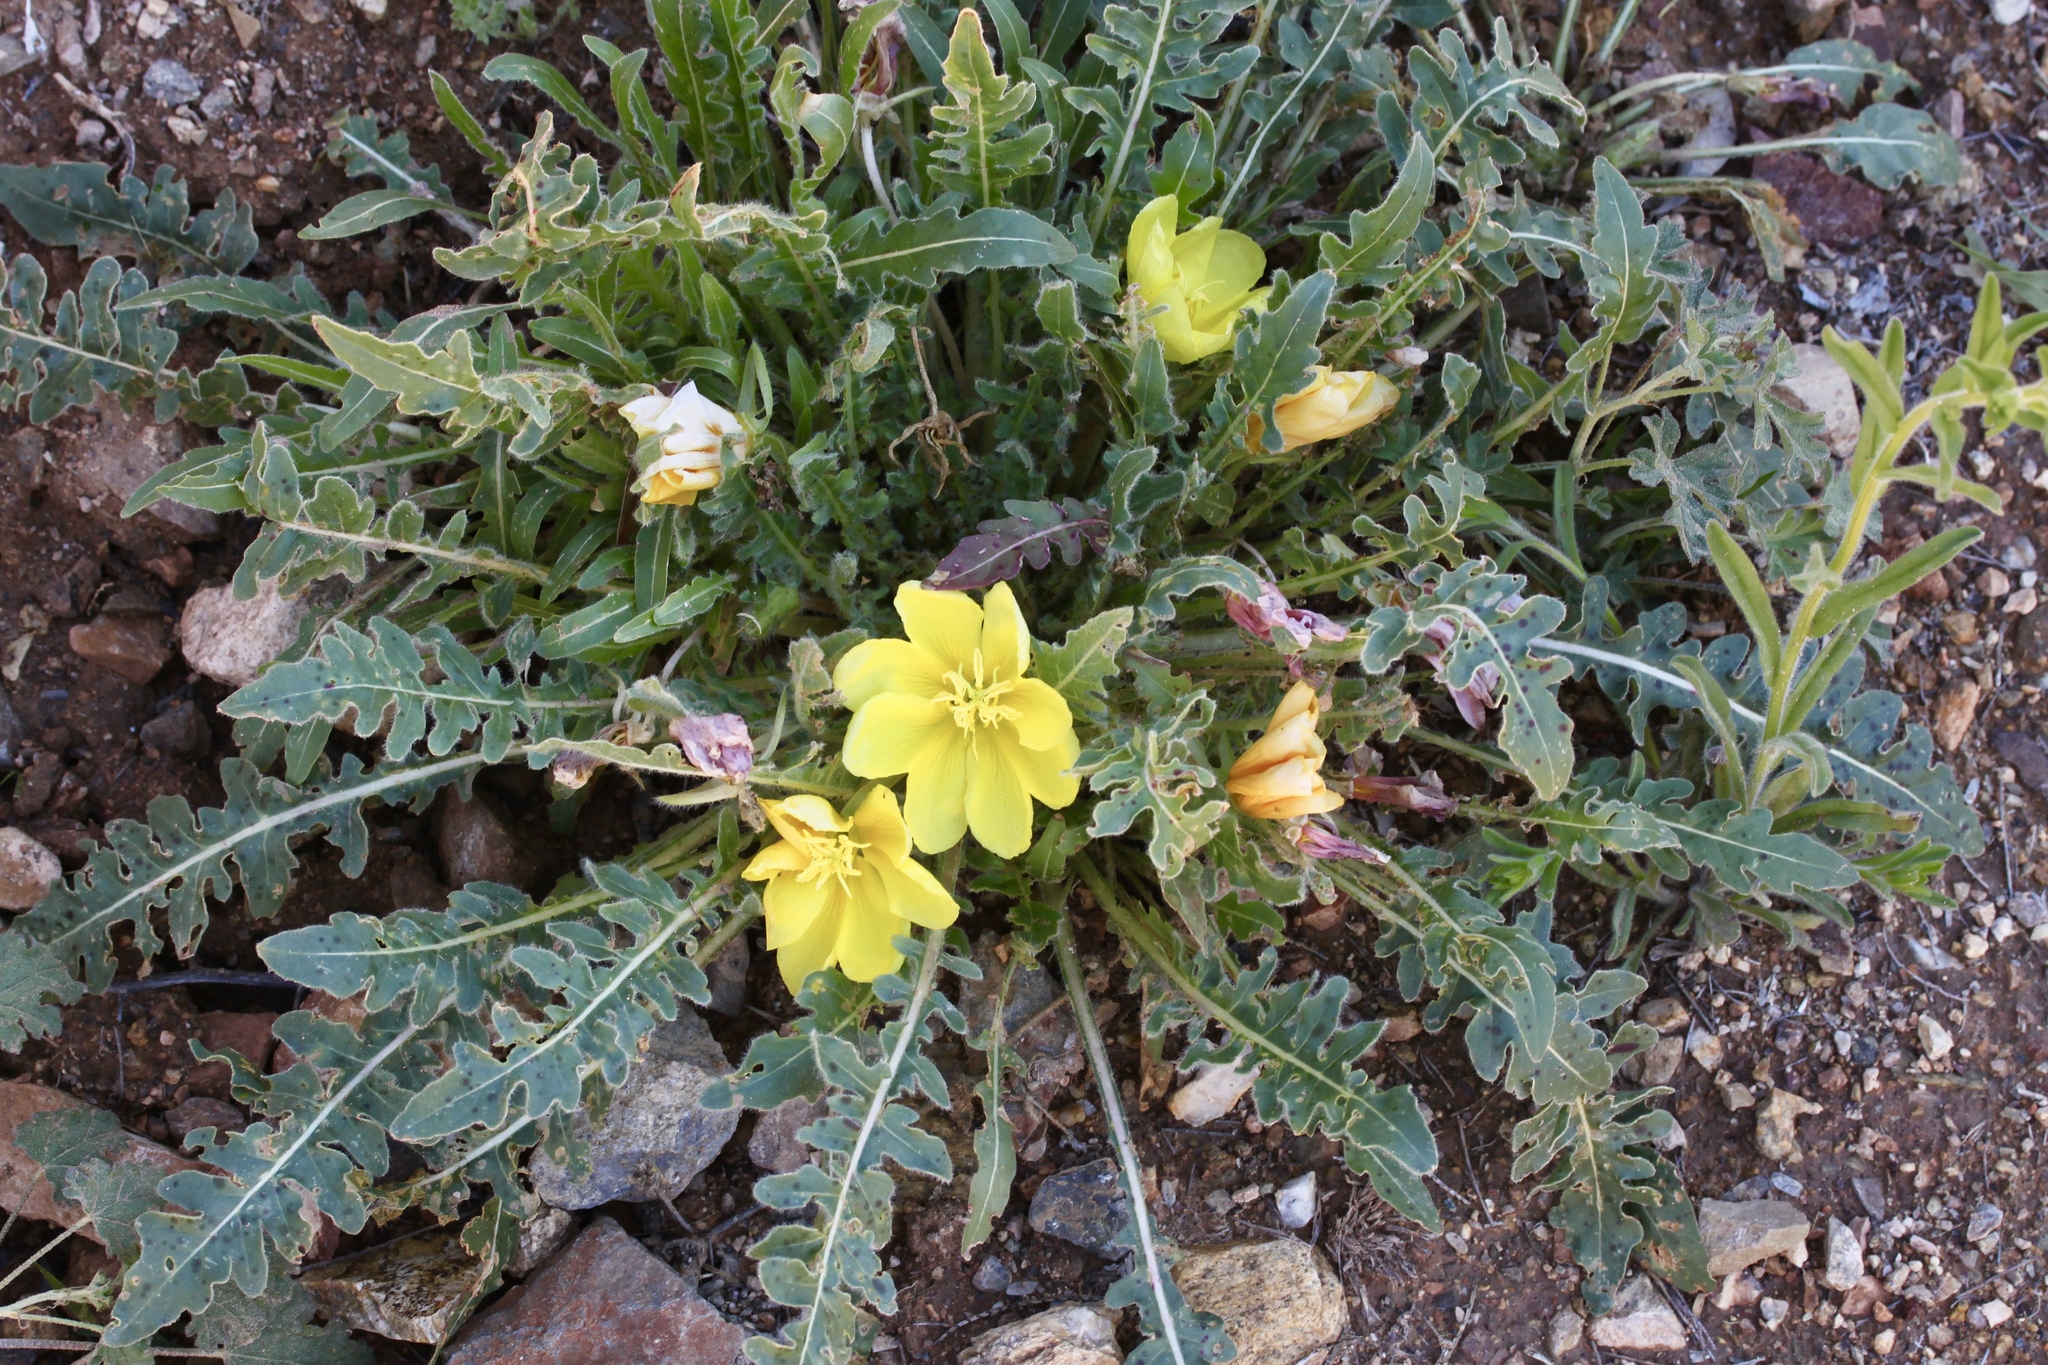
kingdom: Plantae
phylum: Tracheophyta
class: Magnoliopsida
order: Myrtales
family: Onagraceae
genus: Oenothera
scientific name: Oenothera primiveris
